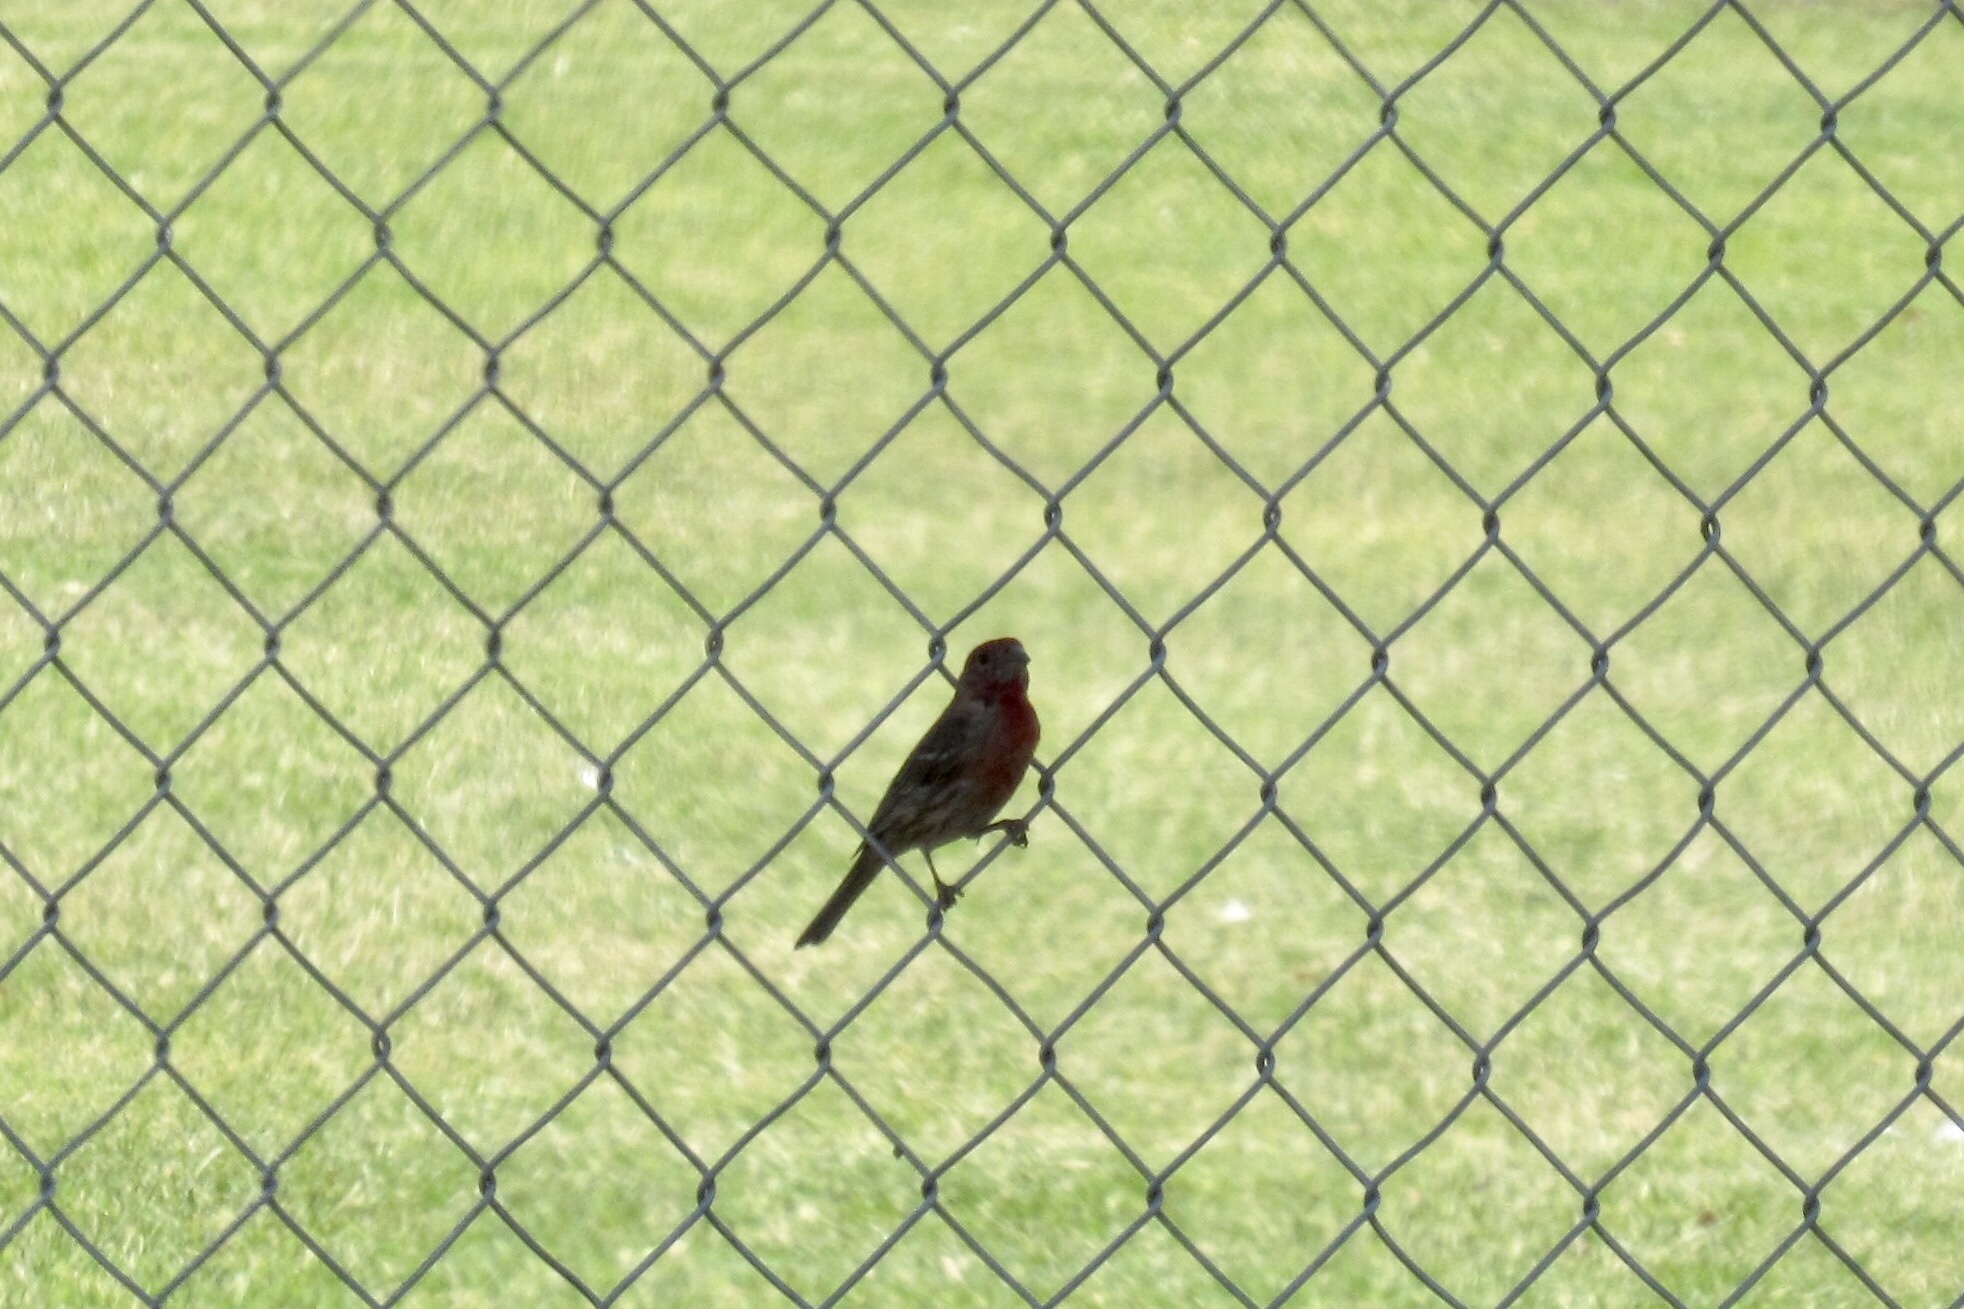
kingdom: Animalia
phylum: Chordata
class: Aves
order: Passeriformes
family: Fringillidae
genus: Haemorhous
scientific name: Haemorhous mexicanus
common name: House finch
